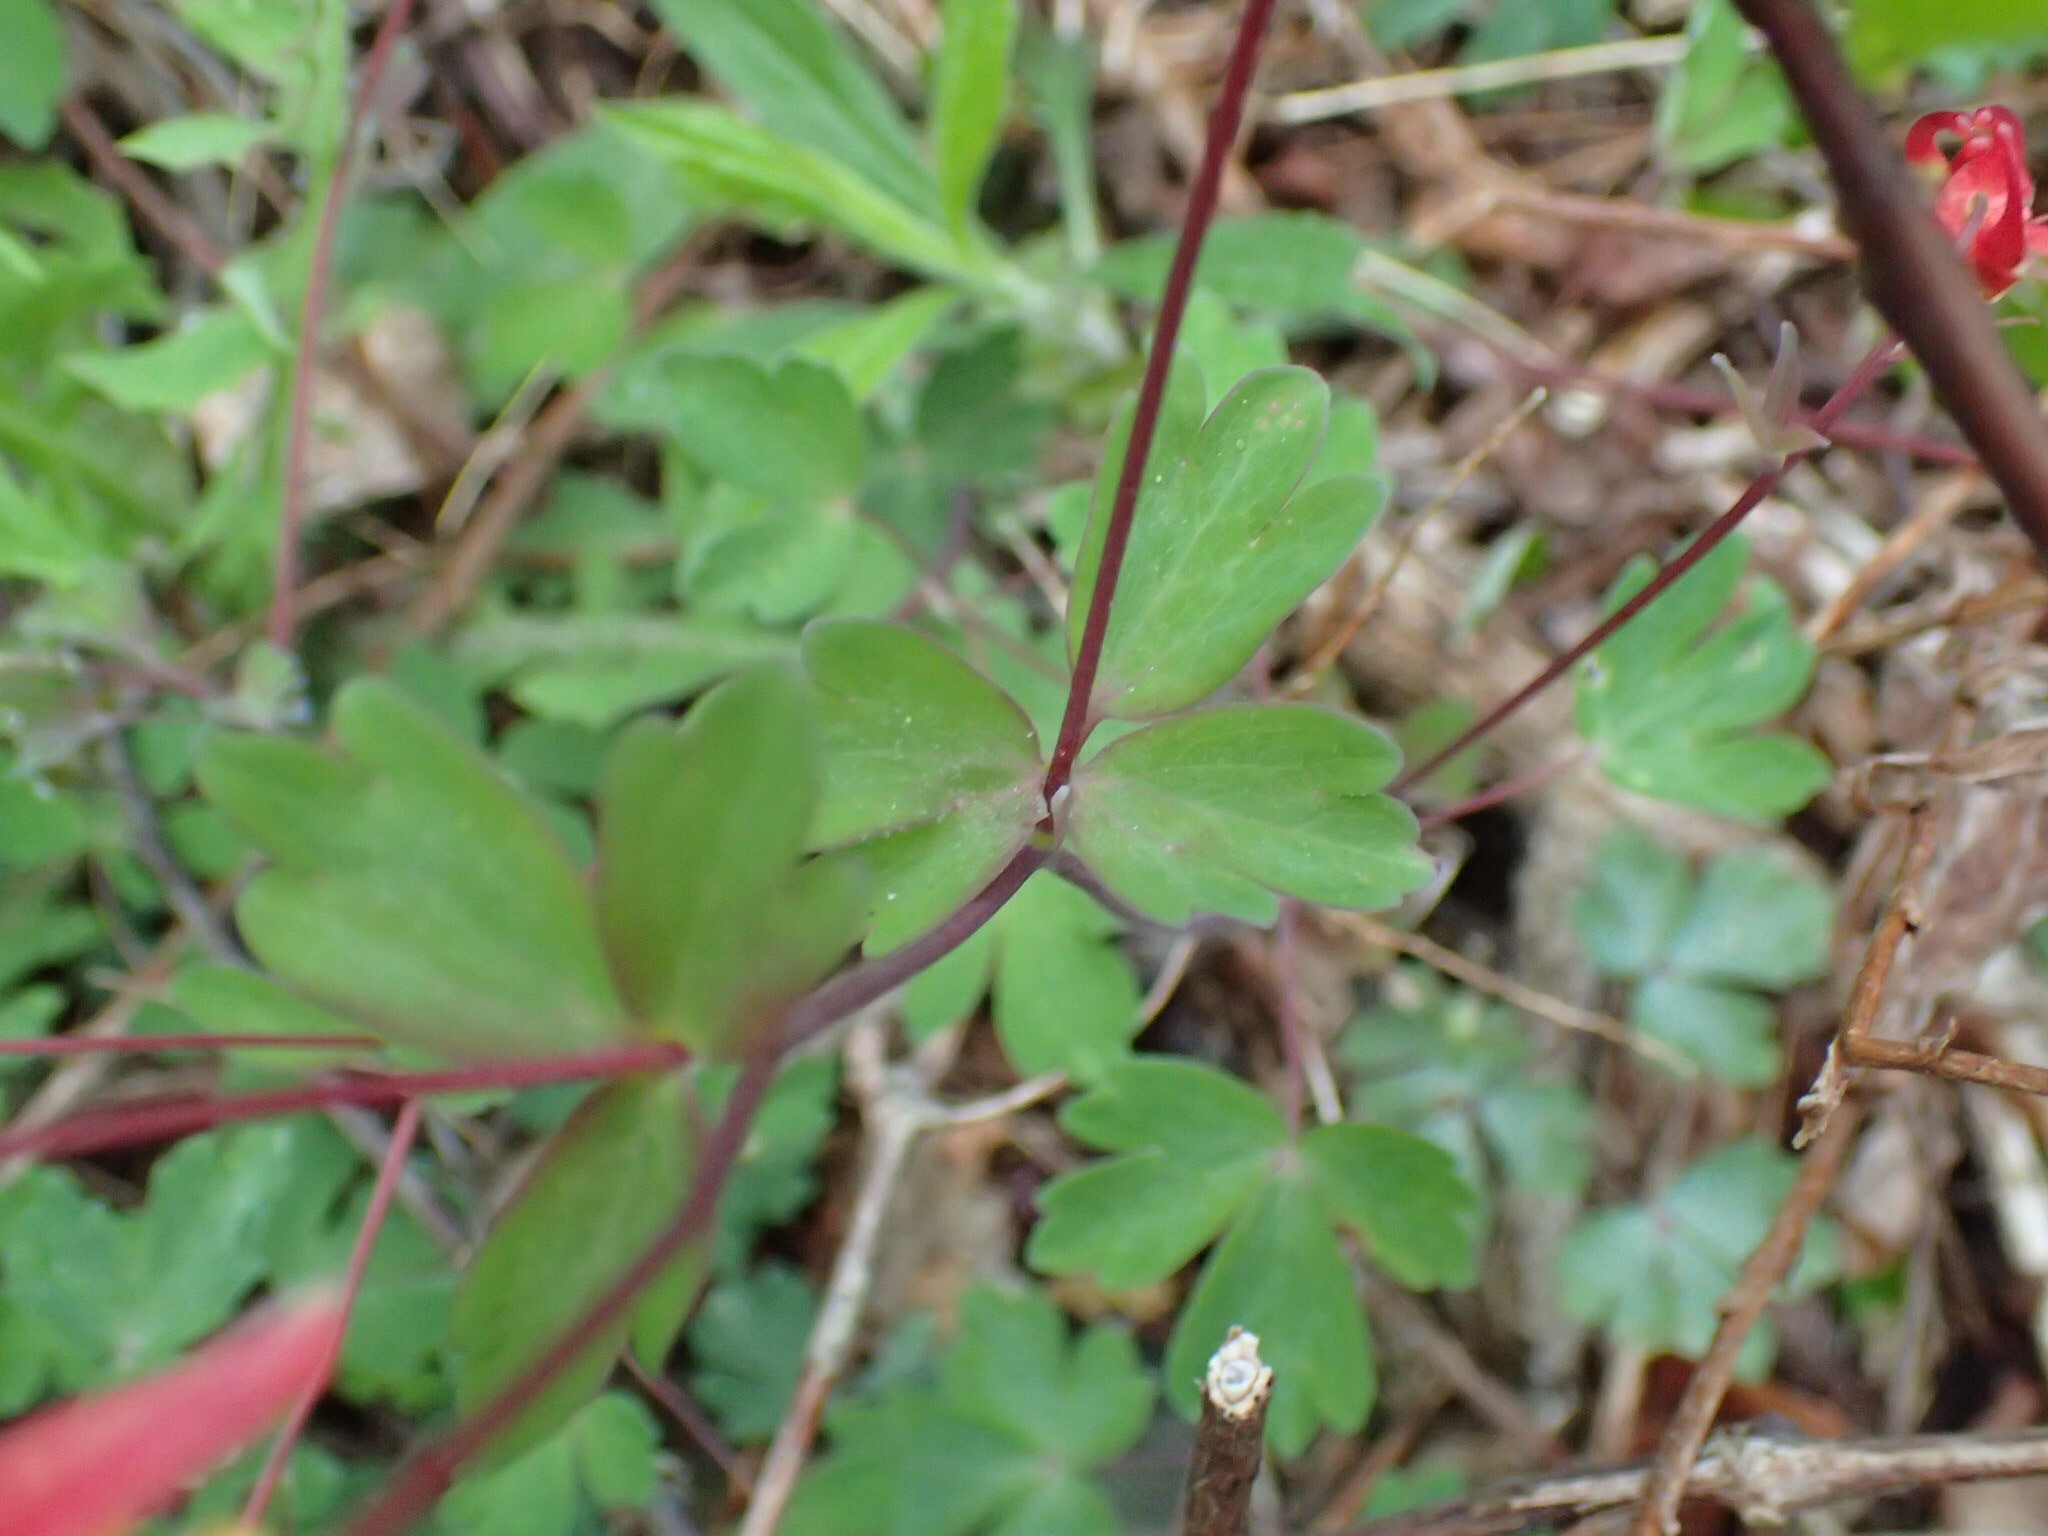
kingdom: Plantae
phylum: Tracheophyta
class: Magnoliopsida
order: Ranunculales
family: Ranunculaceae
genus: Aquilegia
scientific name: Aquilegia canadensis
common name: American columbine
